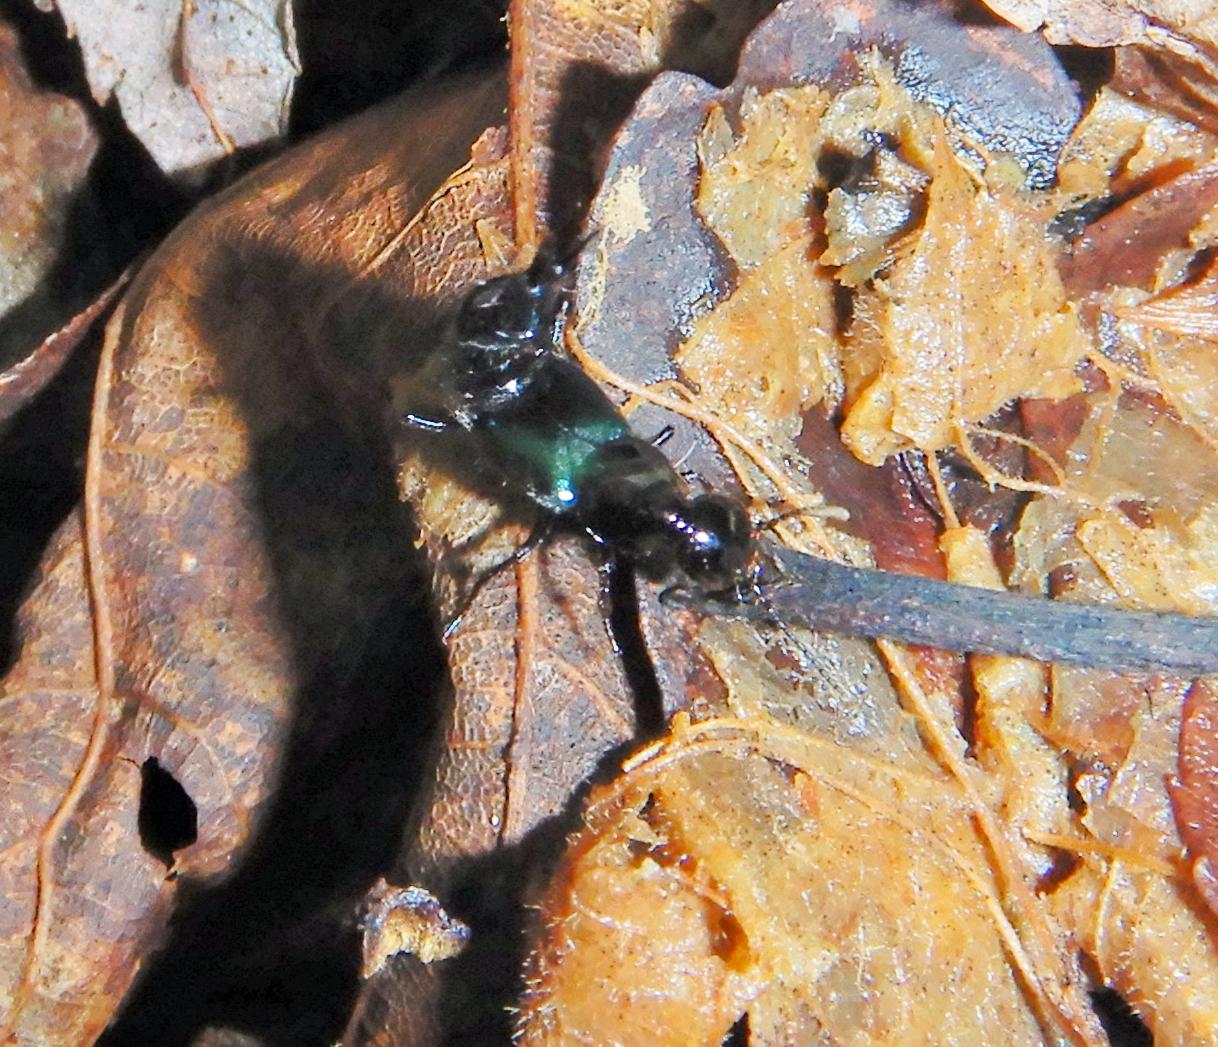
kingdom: Animalia
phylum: Arthropoda
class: Insecta
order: Coleoptera
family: Staphylinidae
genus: Philonthus
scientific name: Philonthus caeruleipennis
